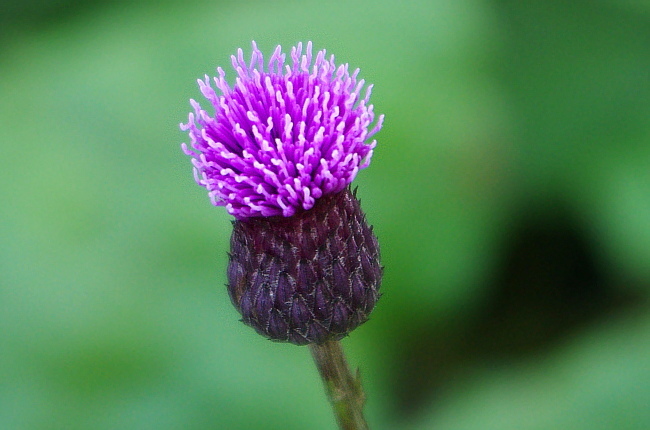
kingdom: Plantae
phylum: Tracheophyta
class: Magnoliopsida
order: Asterales
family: Asteraceae
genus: Cirsium
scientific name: Cirsium arvense
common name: Creeping thistle
